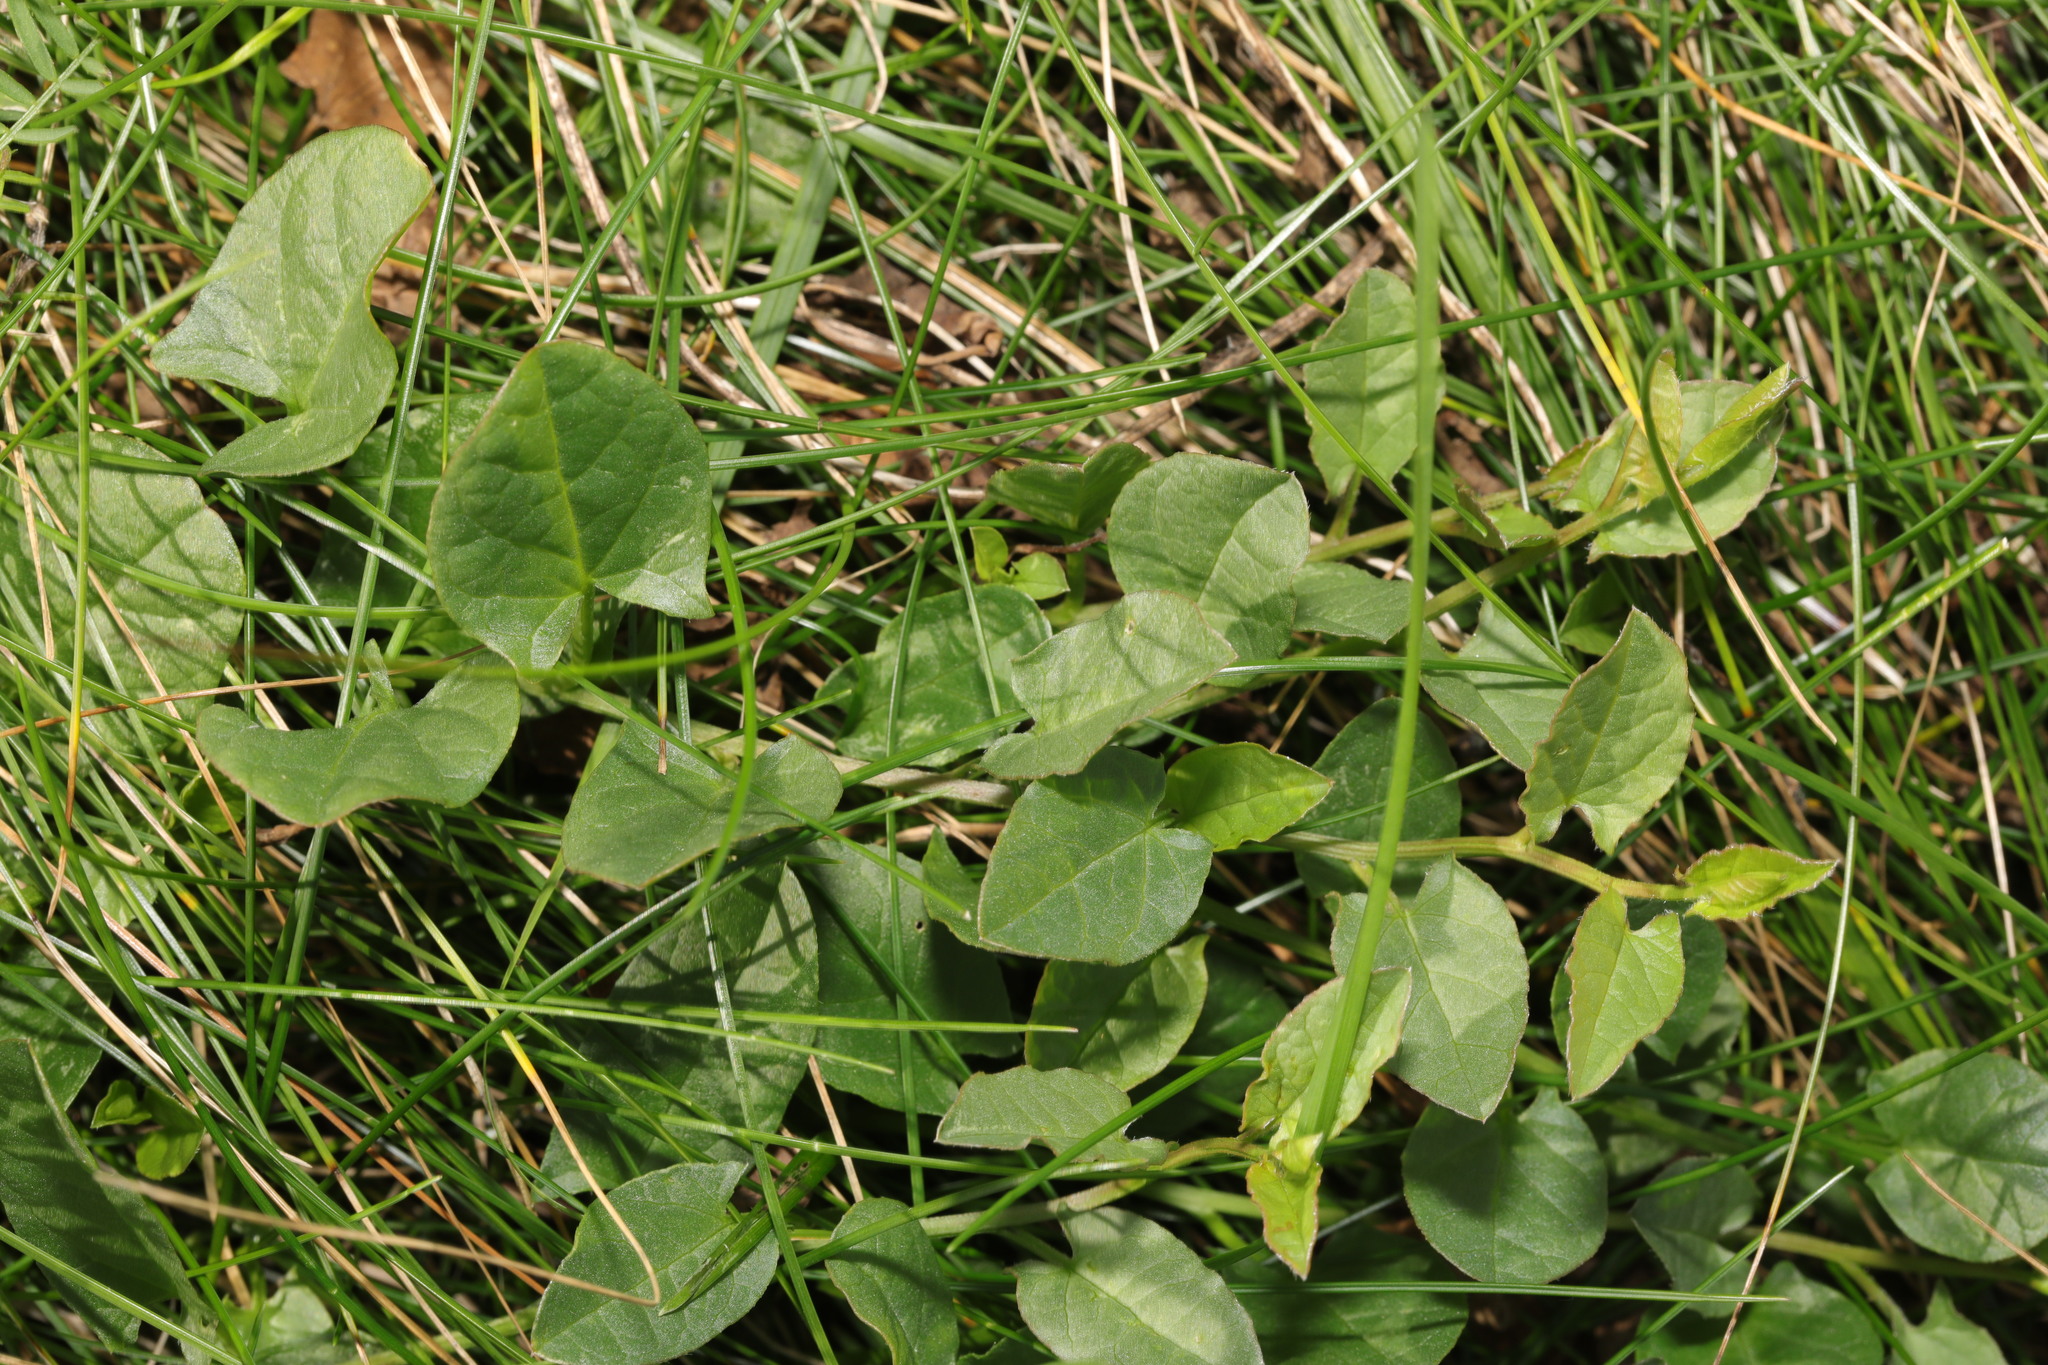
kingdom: Plantae
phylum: Tracheophyta
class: Magnoliopsida
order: Solanales
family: Convolvulaceae
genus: Convolvulus
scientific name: Convolvulus arvensis
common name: Field bindweed
